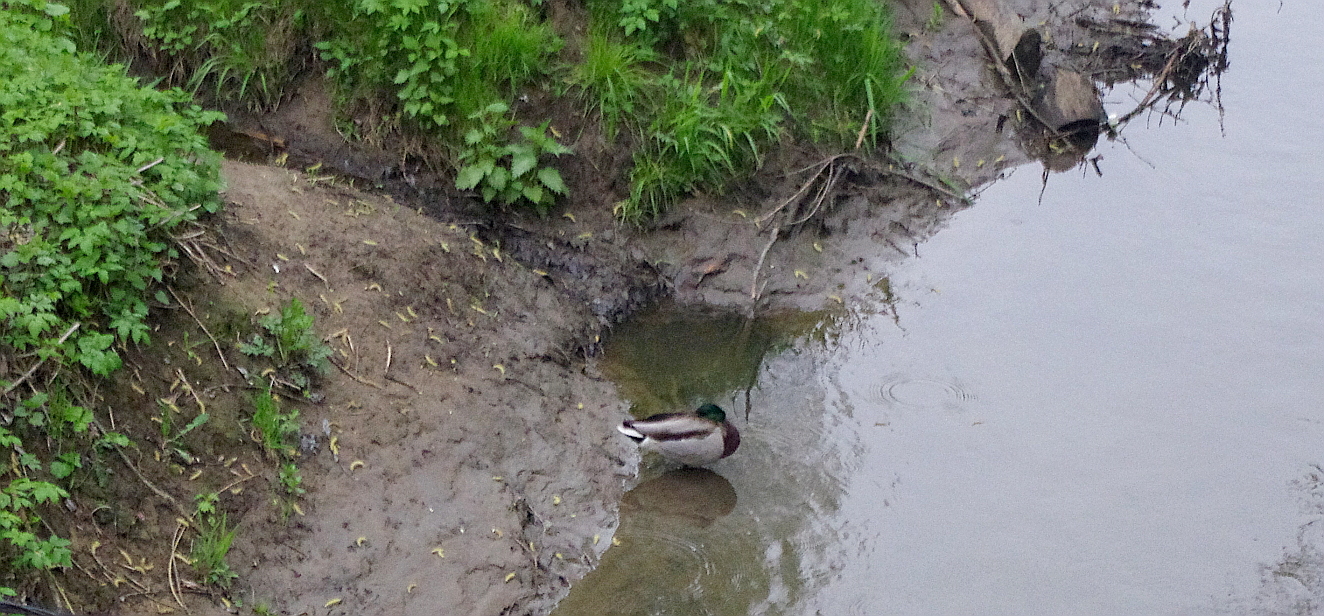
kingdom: Animalia
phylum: Chordata
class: Aves
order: Anseriformes
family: Anatidae
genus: Anas
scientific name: Anas platyrhynchos
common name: Mallard
